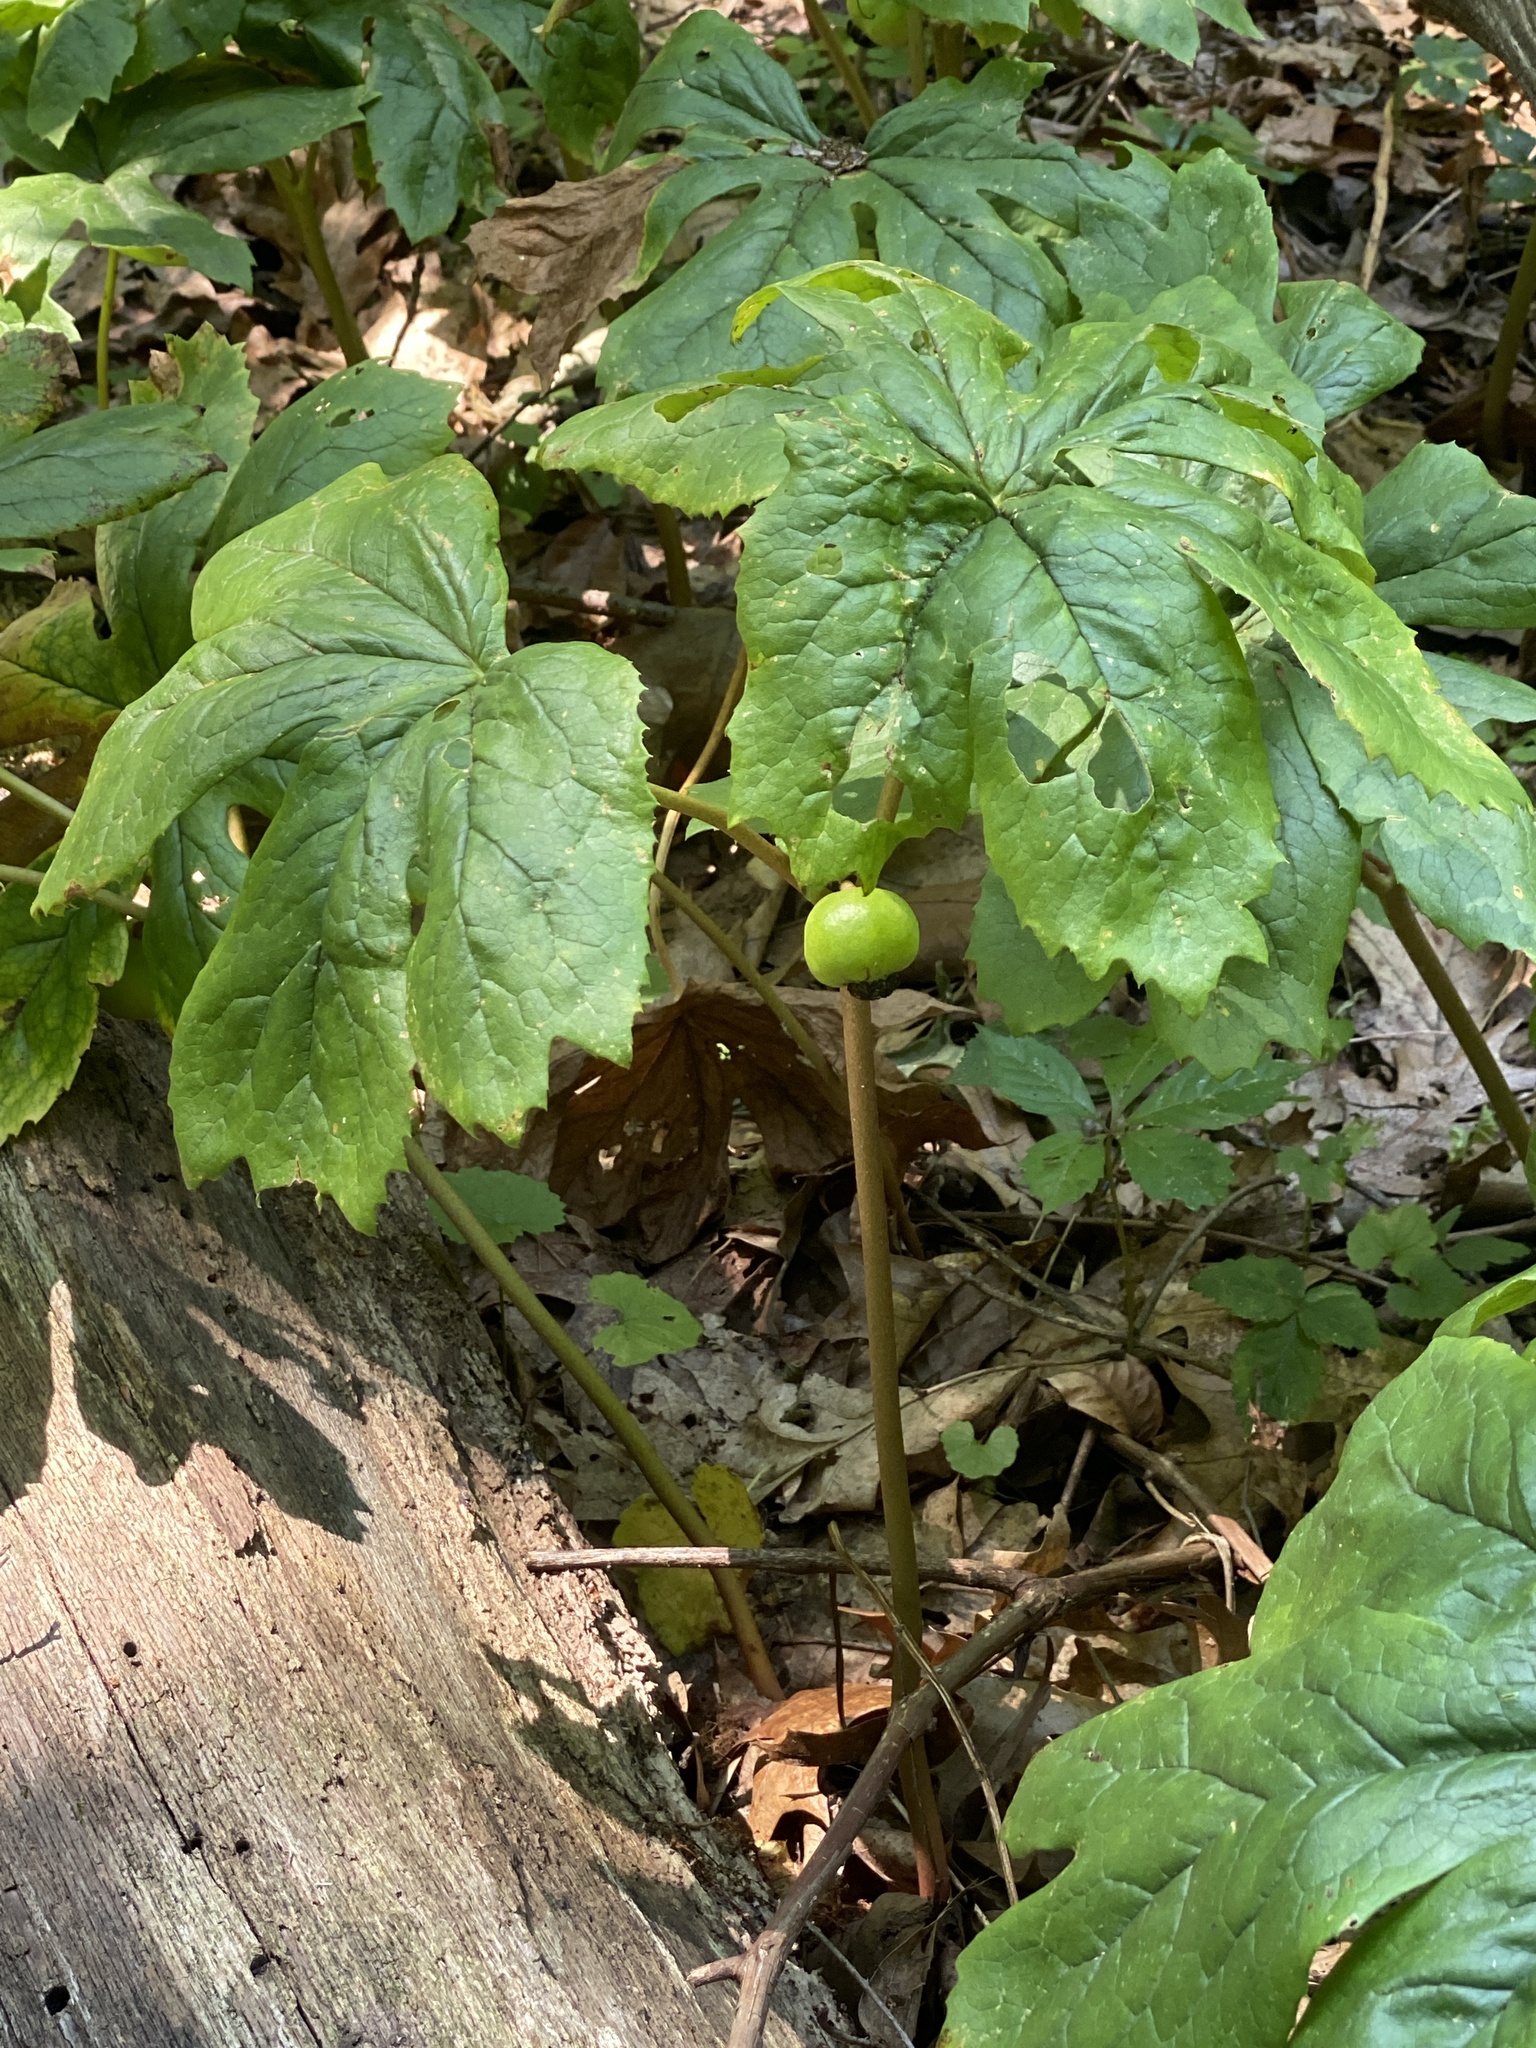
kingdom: Plantae
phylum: Tracheophyta
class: Magnoliopsida
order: Ranunculales
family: Berberidaceae
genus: Podophyllum
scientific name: Podophyllum peltatum
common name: Wild mandrake
